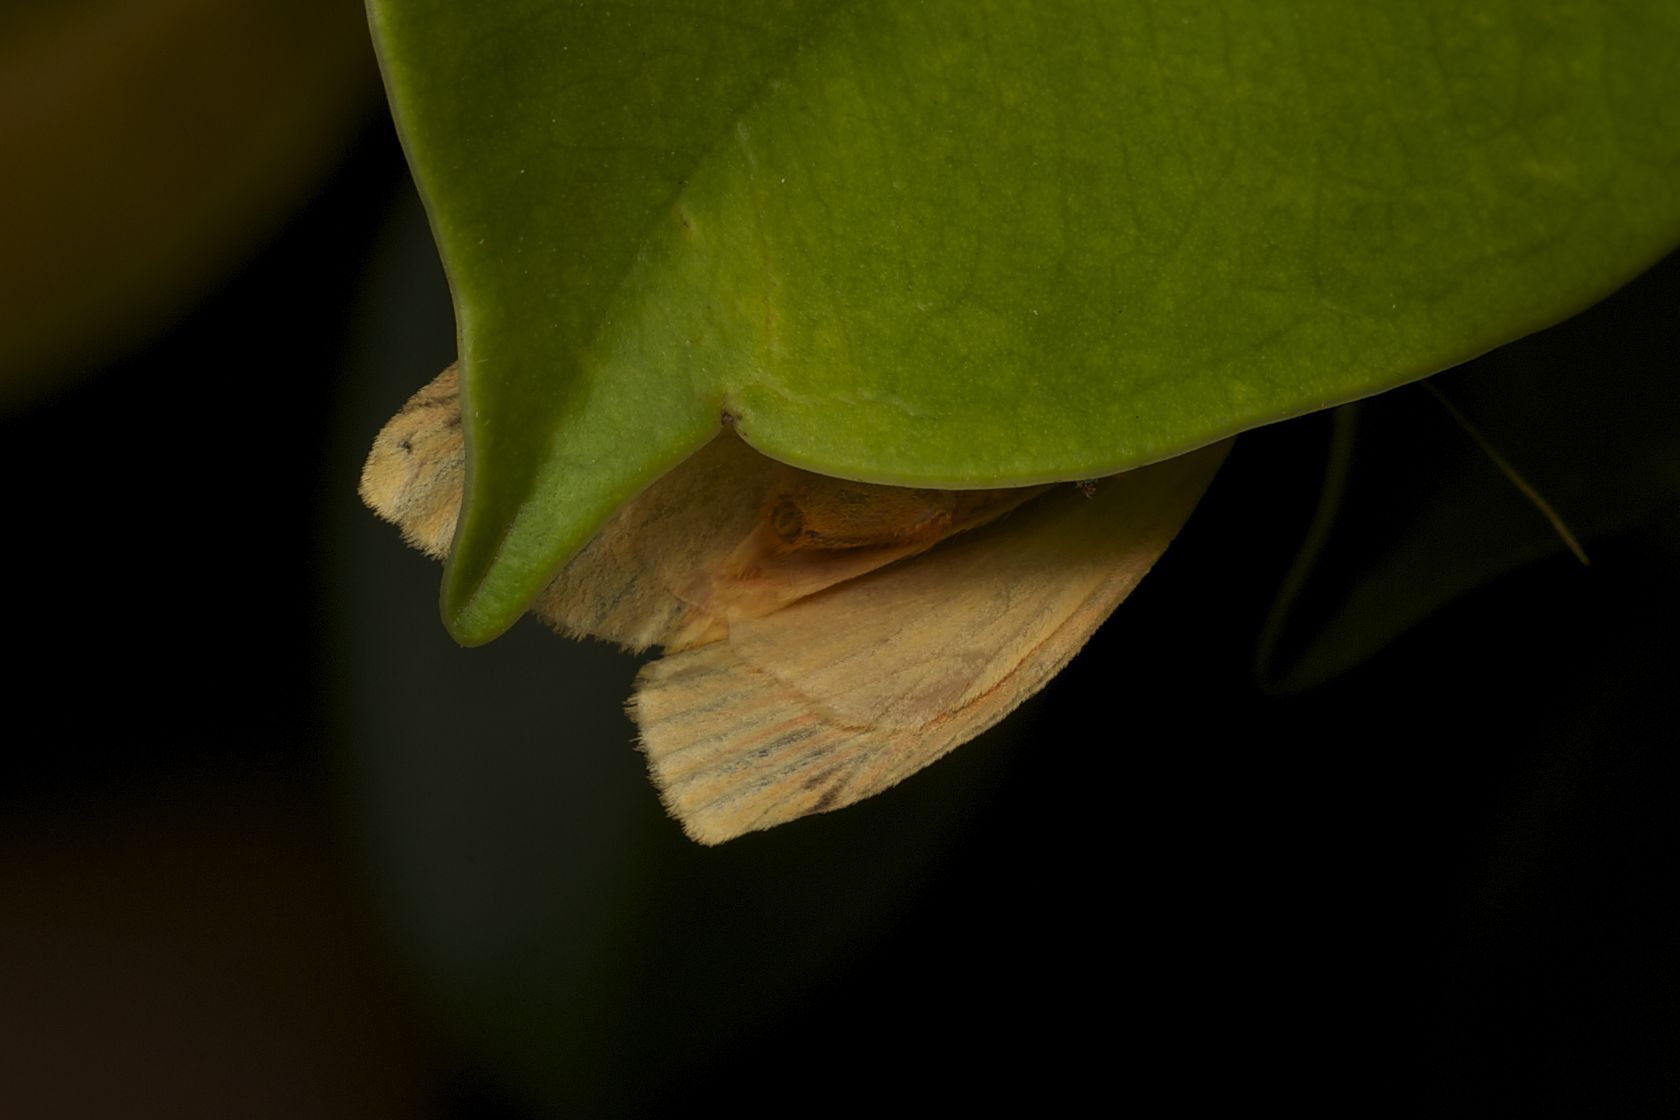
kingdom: Animalia
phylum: Arthropoda
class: Insecta
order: Lepidoptera
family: Erebidae
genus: Barsine
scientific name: Barsine striata
